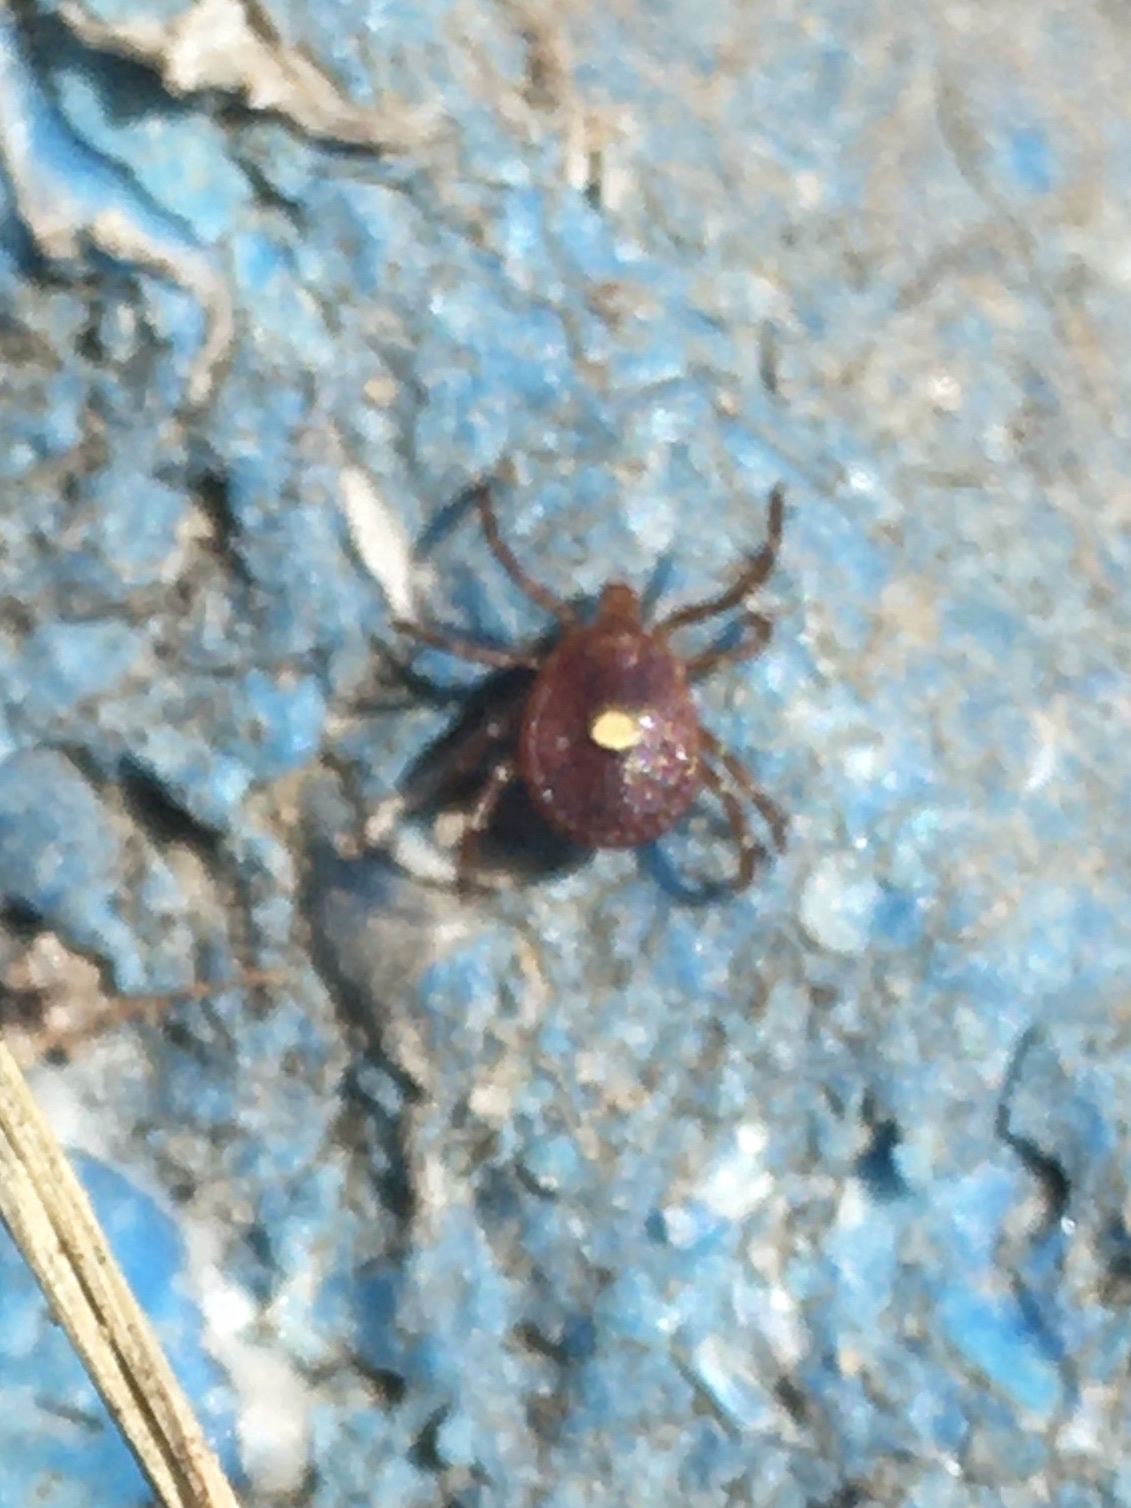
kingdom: Animalia
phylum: Arthropoda
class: Arachnida
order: Ixodida
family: Ixodidae
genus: Amblyomma
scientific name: Amblyomma americanum
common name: Lone star tick
